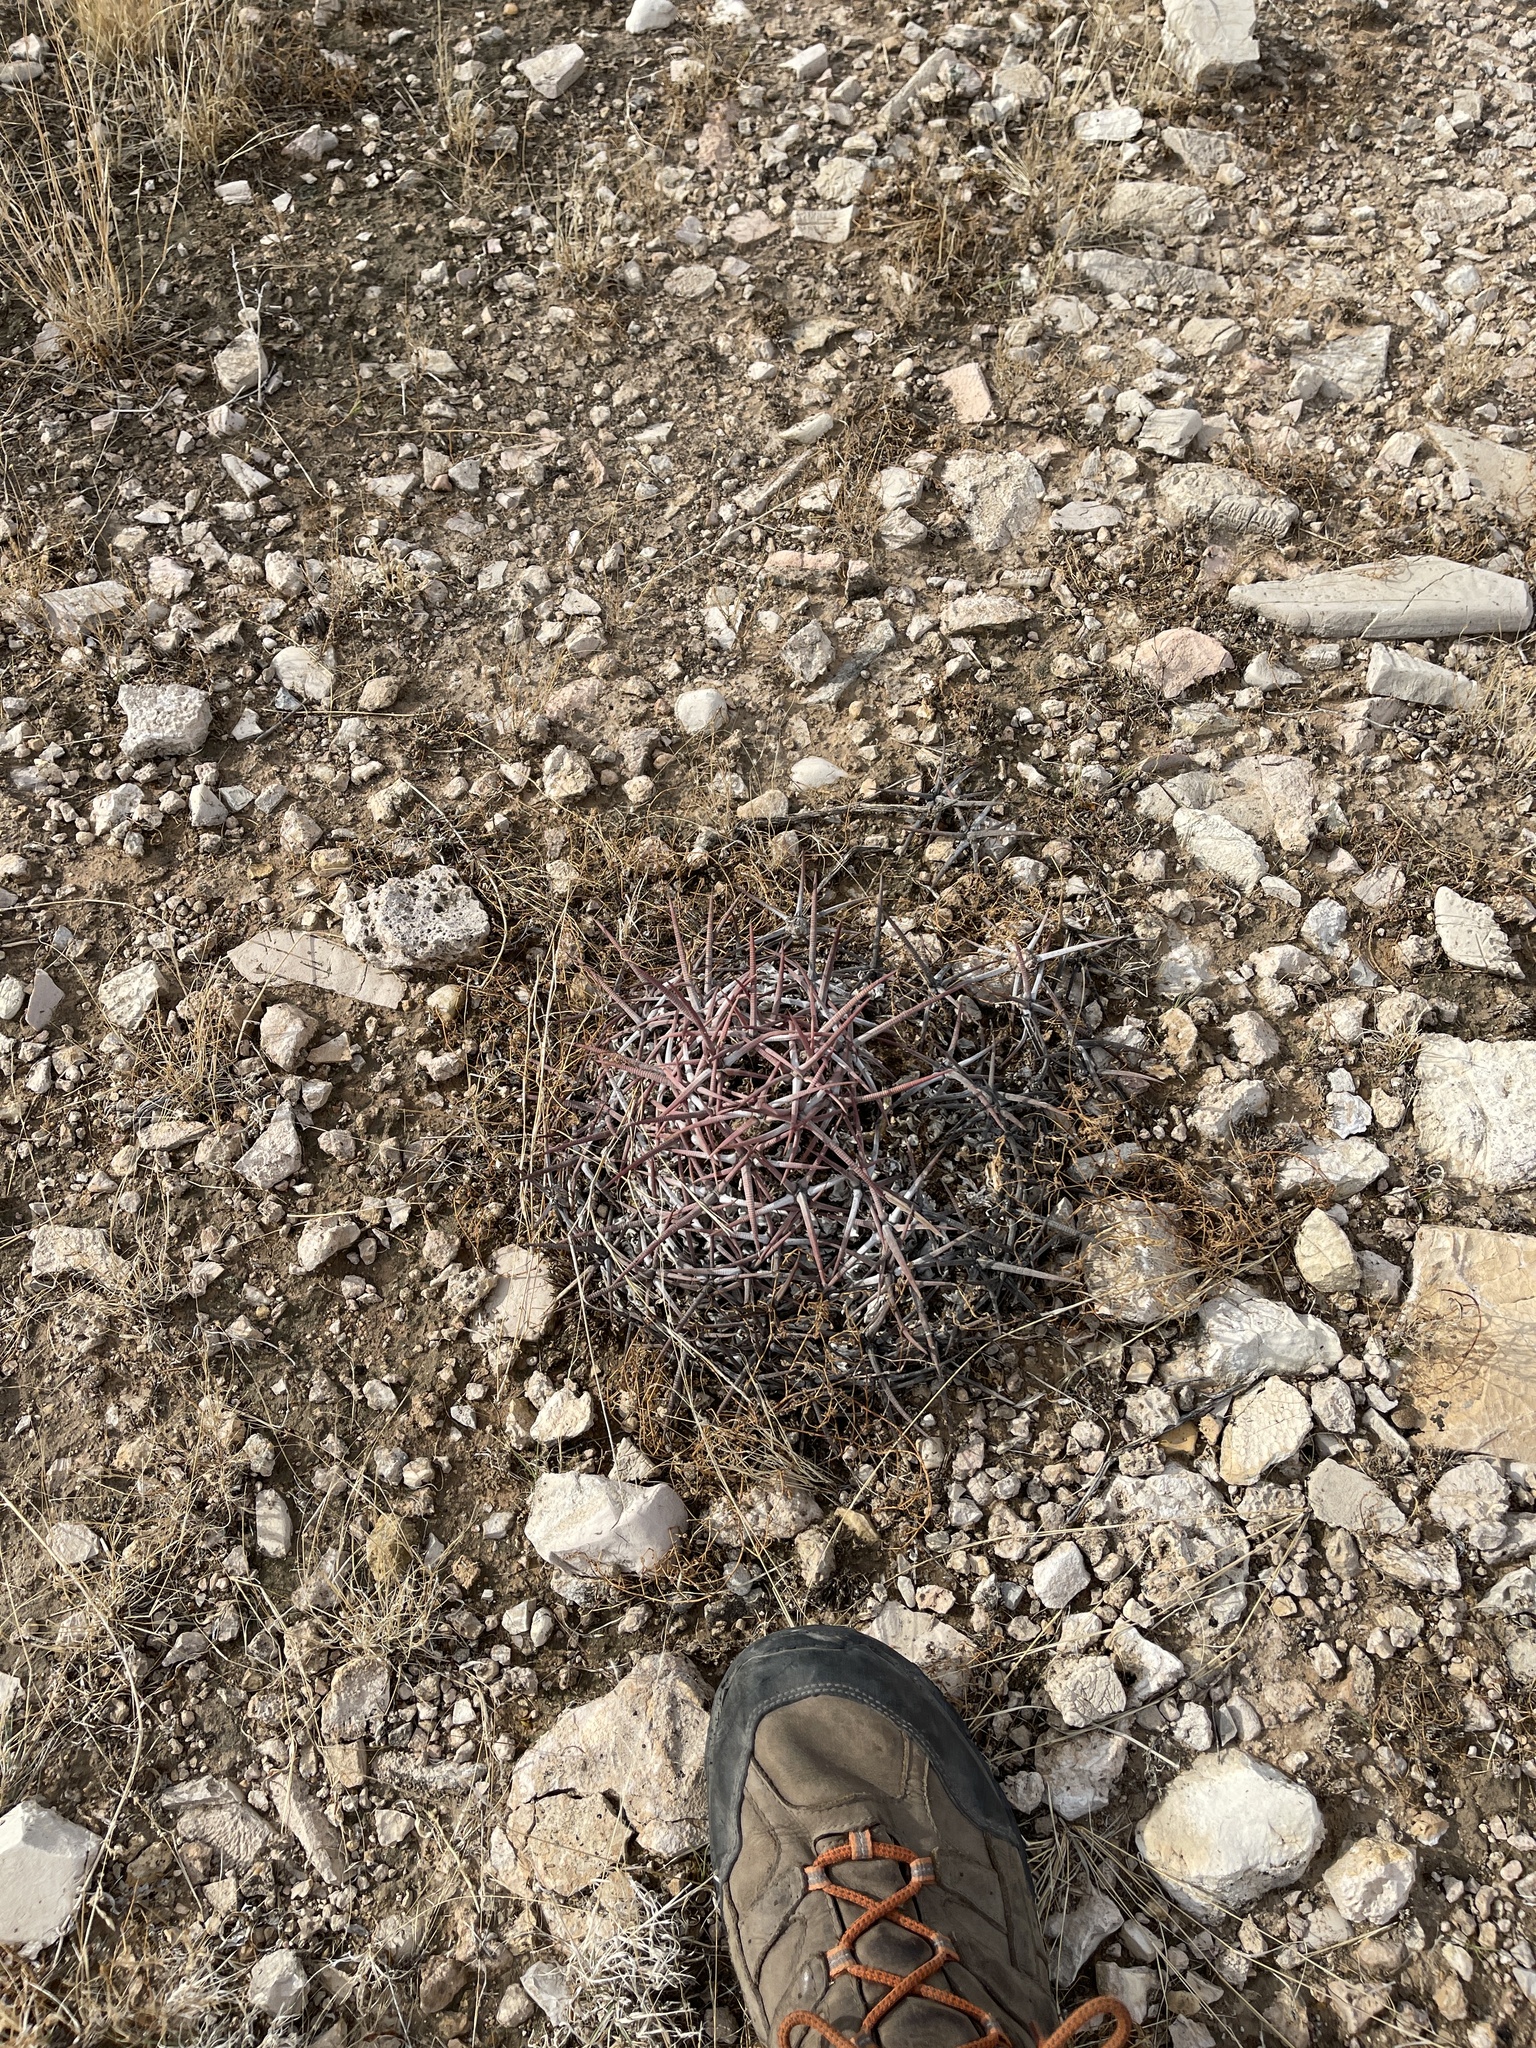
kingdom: Plantae
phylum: Tracheophyta
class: Magnoliopsida
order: Caryophyllales
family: Cactaceae
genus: Echinocactus
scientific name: Echinocactus texensis
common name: Devil's pincushion
